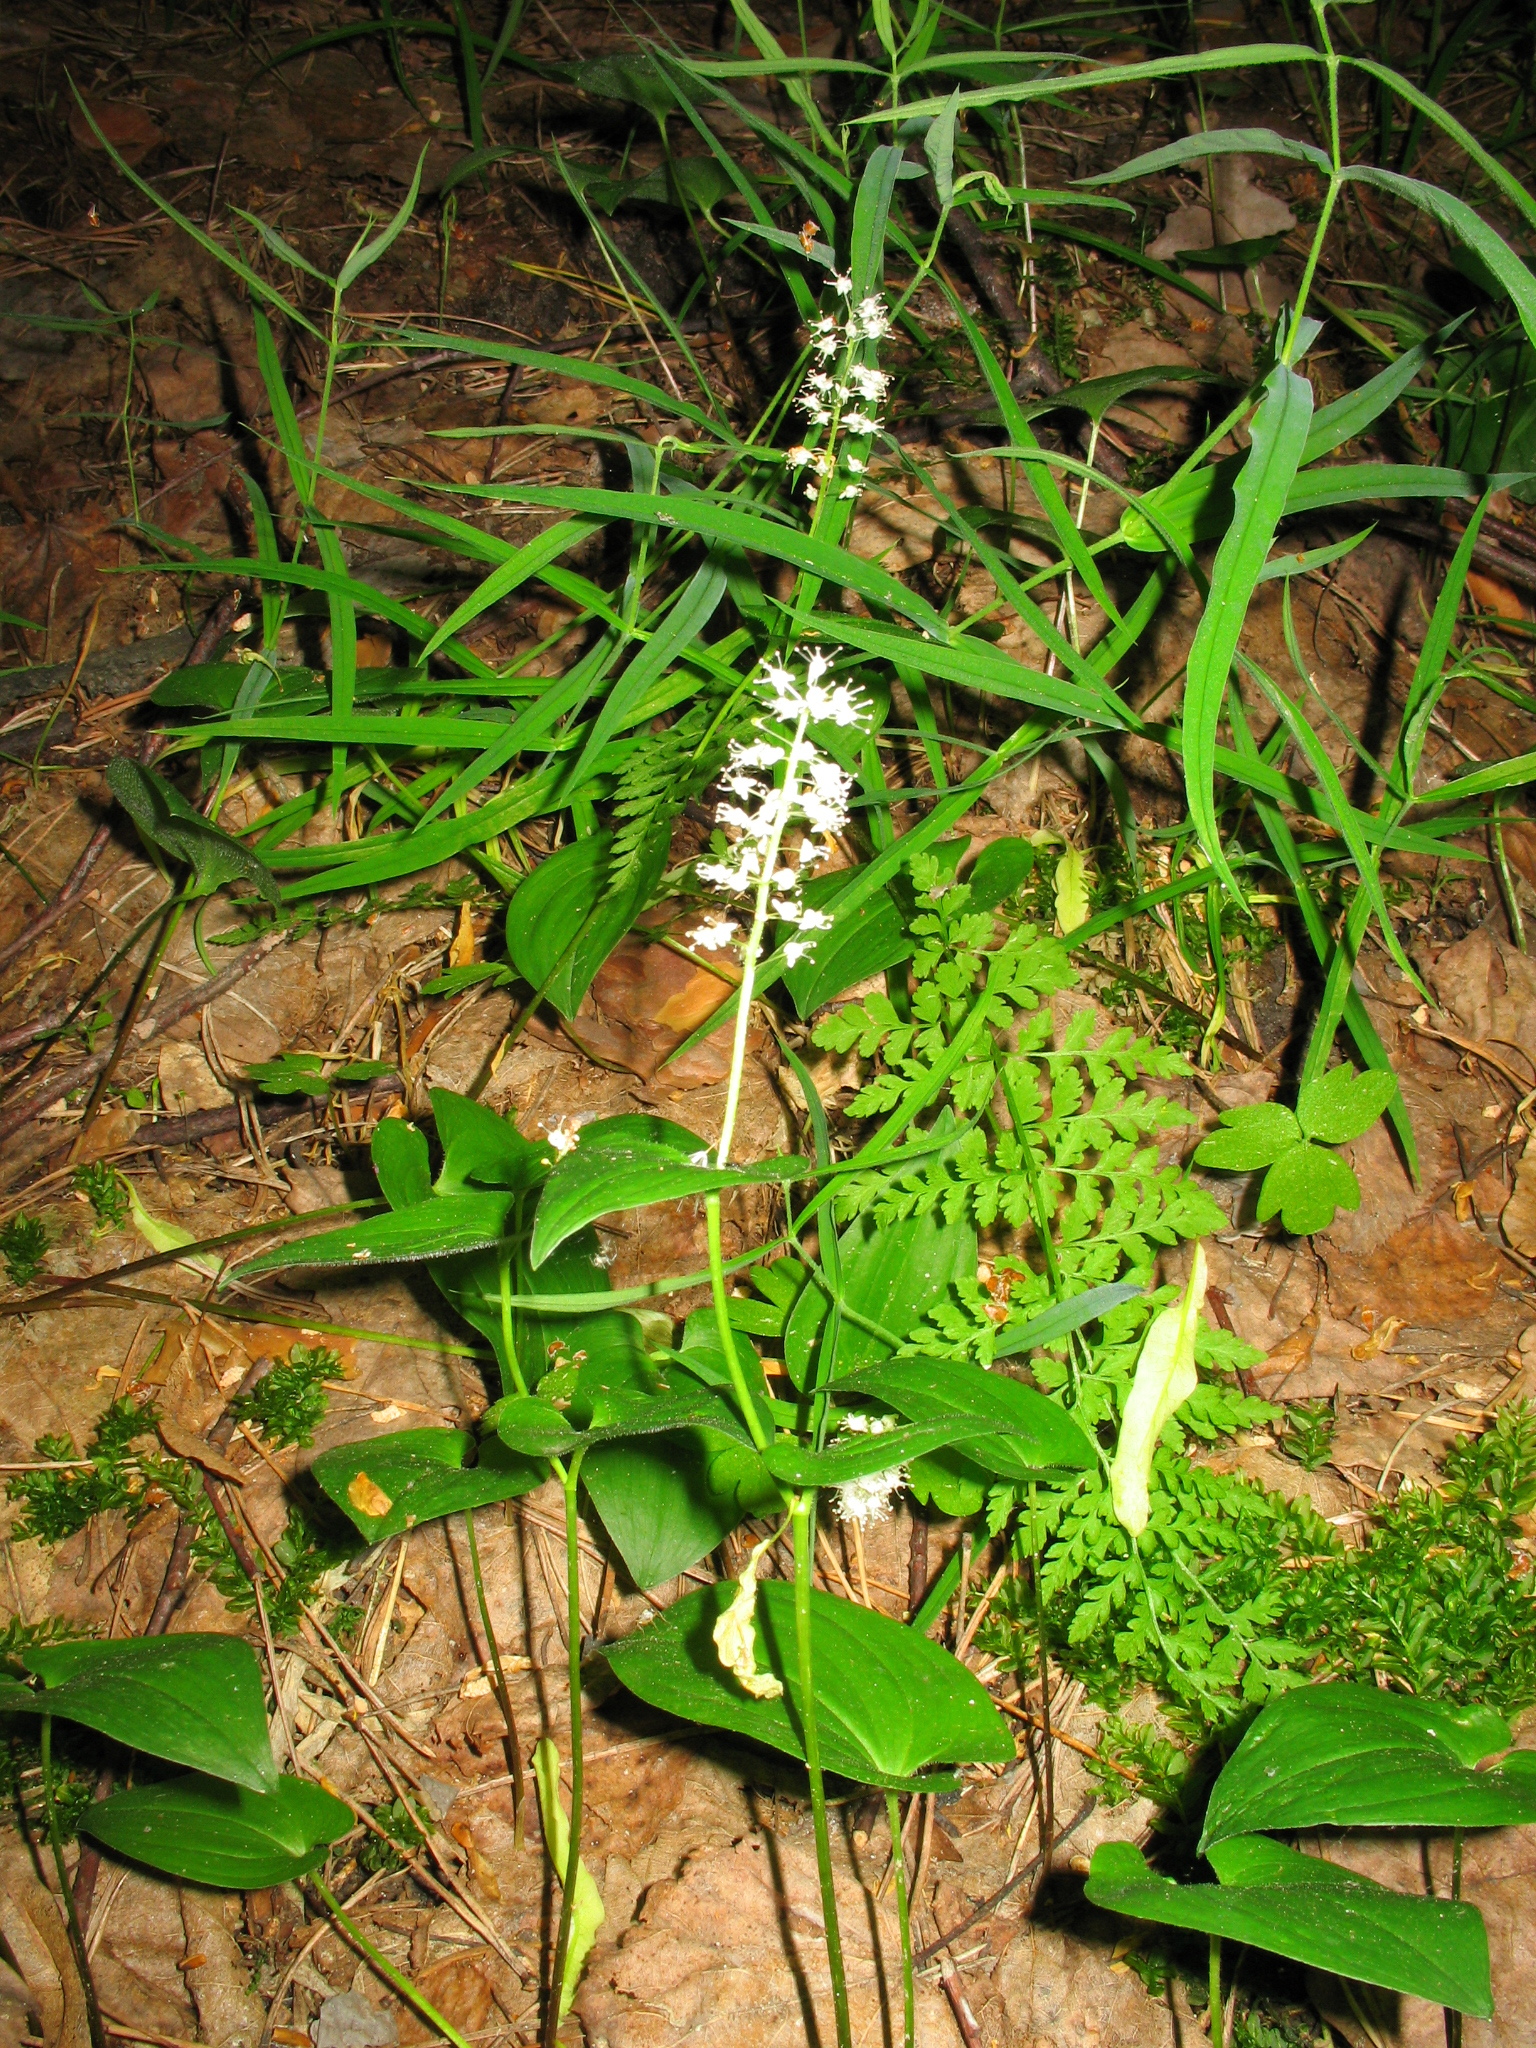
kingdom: Plantae
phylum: Tracheophyta
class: Liliopsida
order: Asparagales
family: Asparagaceae
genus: Maianthemum
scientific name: Maianthemum bifolium
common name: May lily
